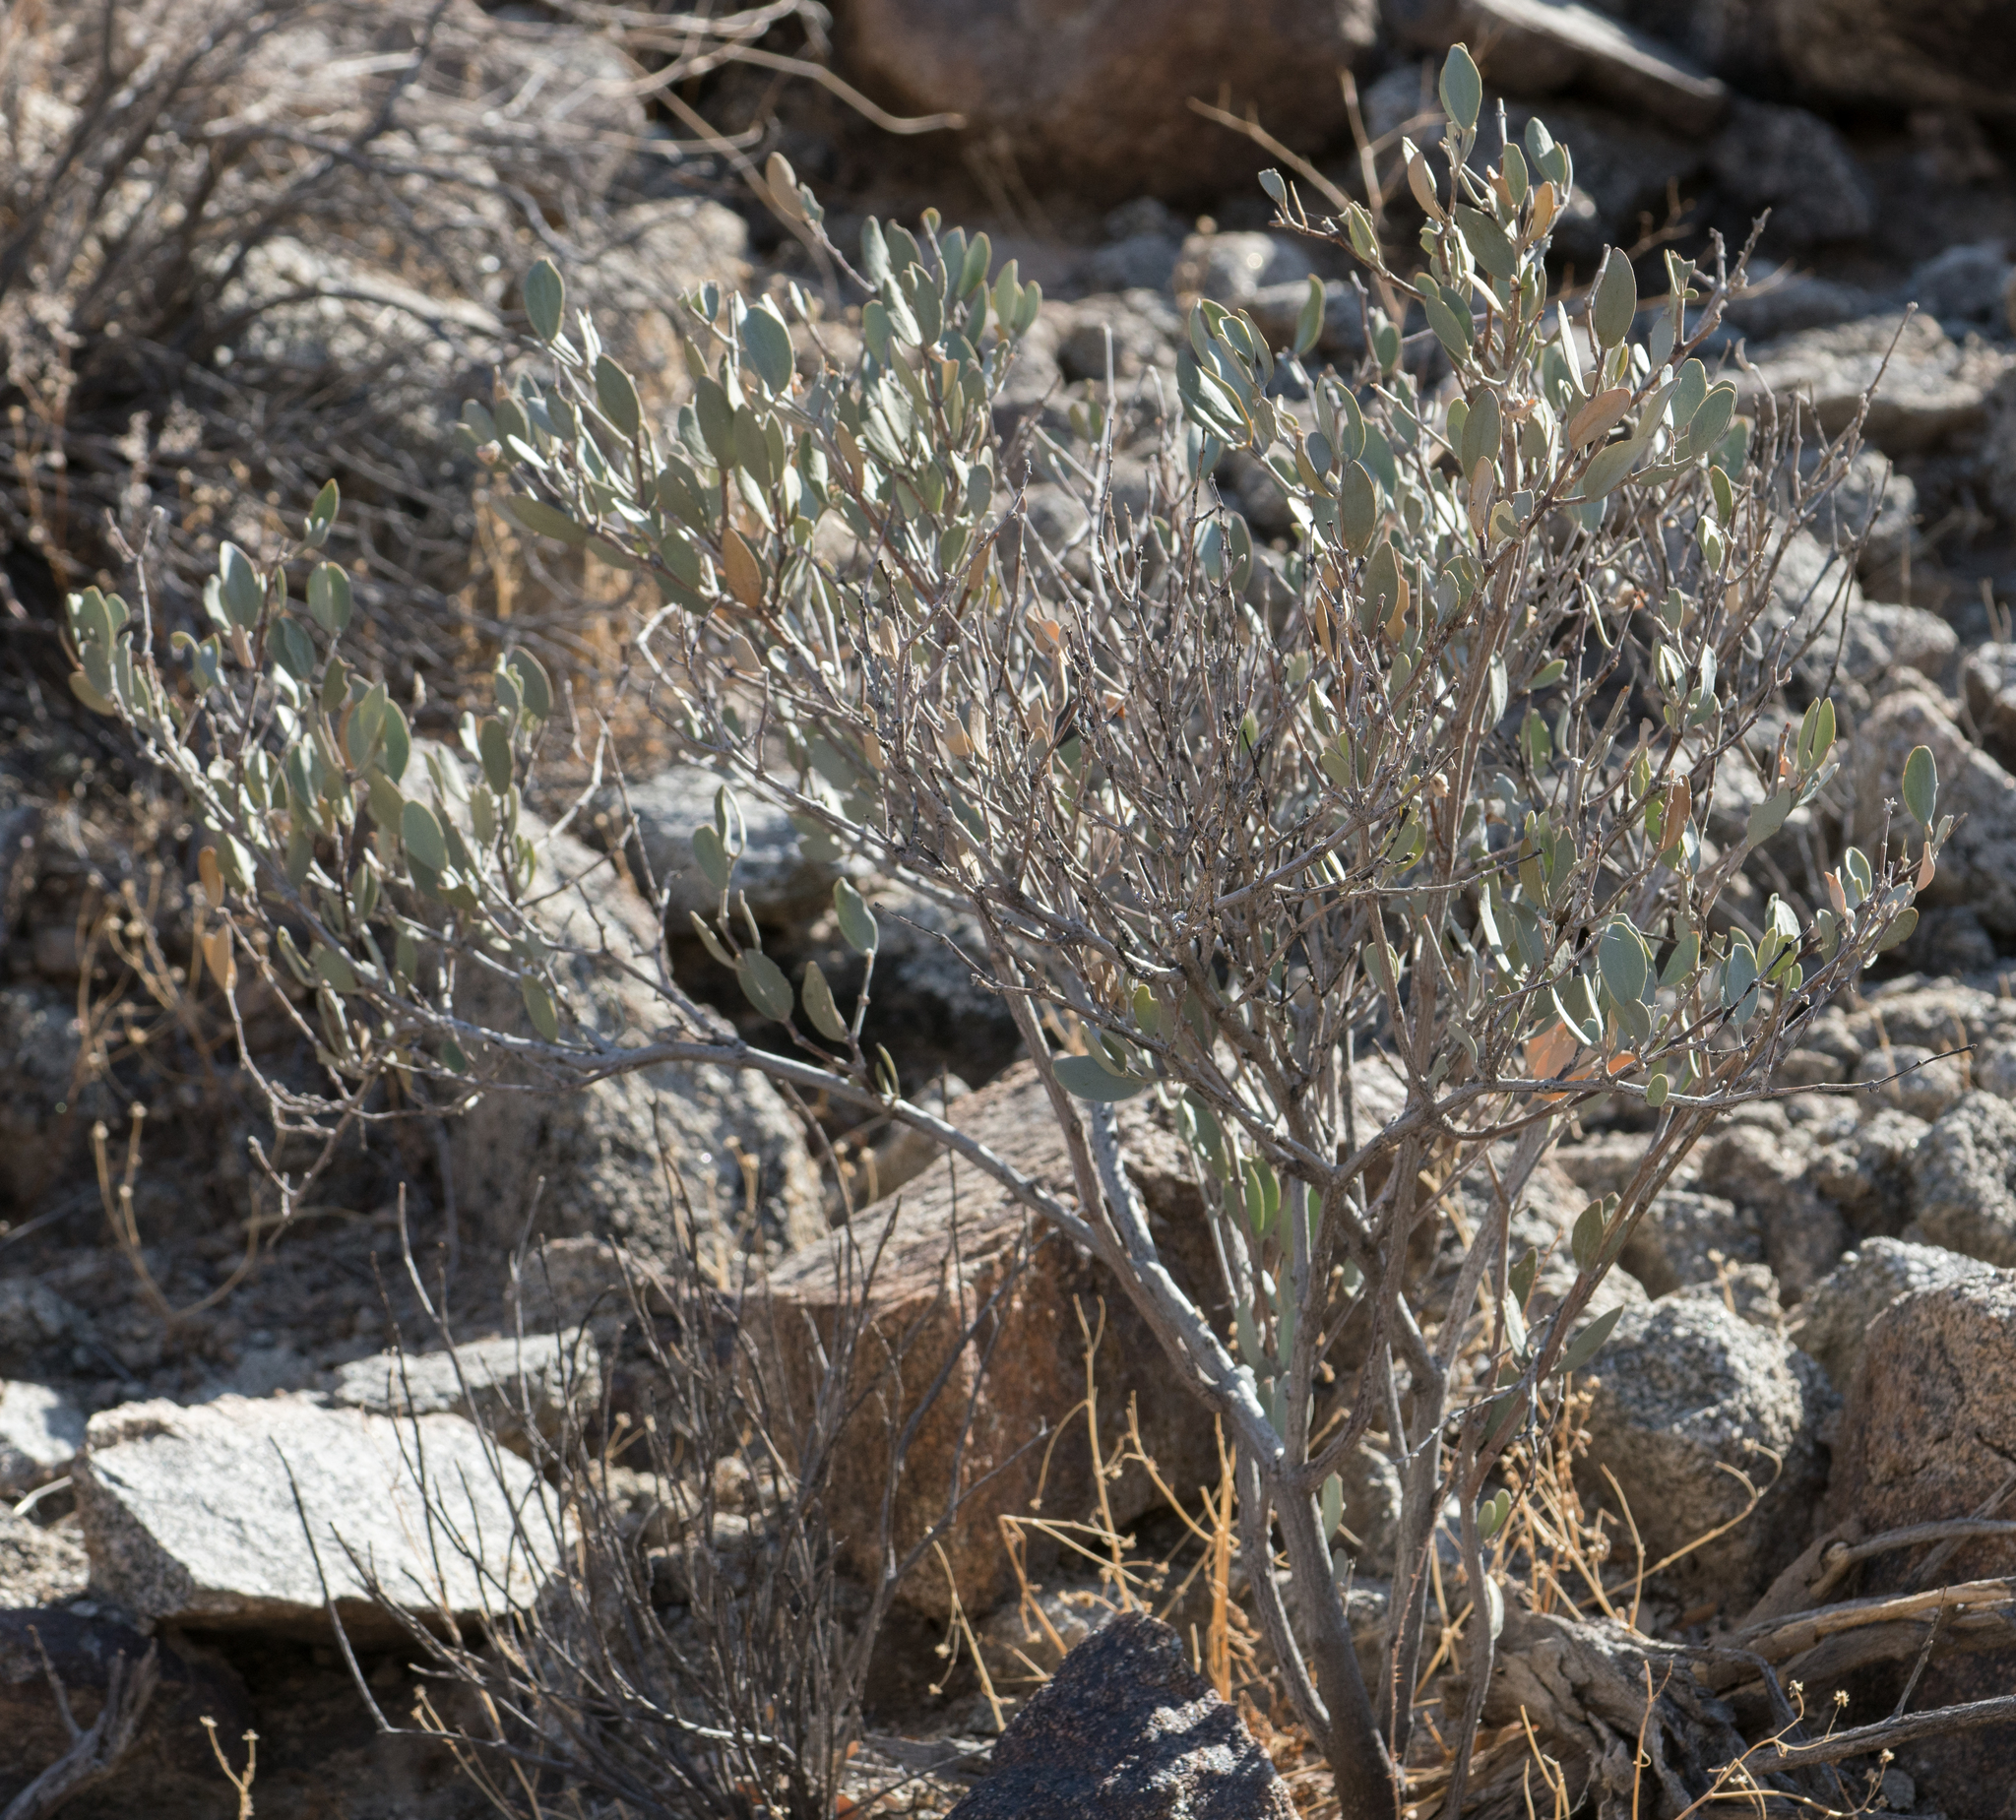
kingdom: Plantae
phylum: Tracheophyta
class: Magnoliopsida
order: Caryophyllales
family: Simmondsiaceae
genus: Simmondsia
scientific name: Simmondsia chinensis
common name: Jojoba
